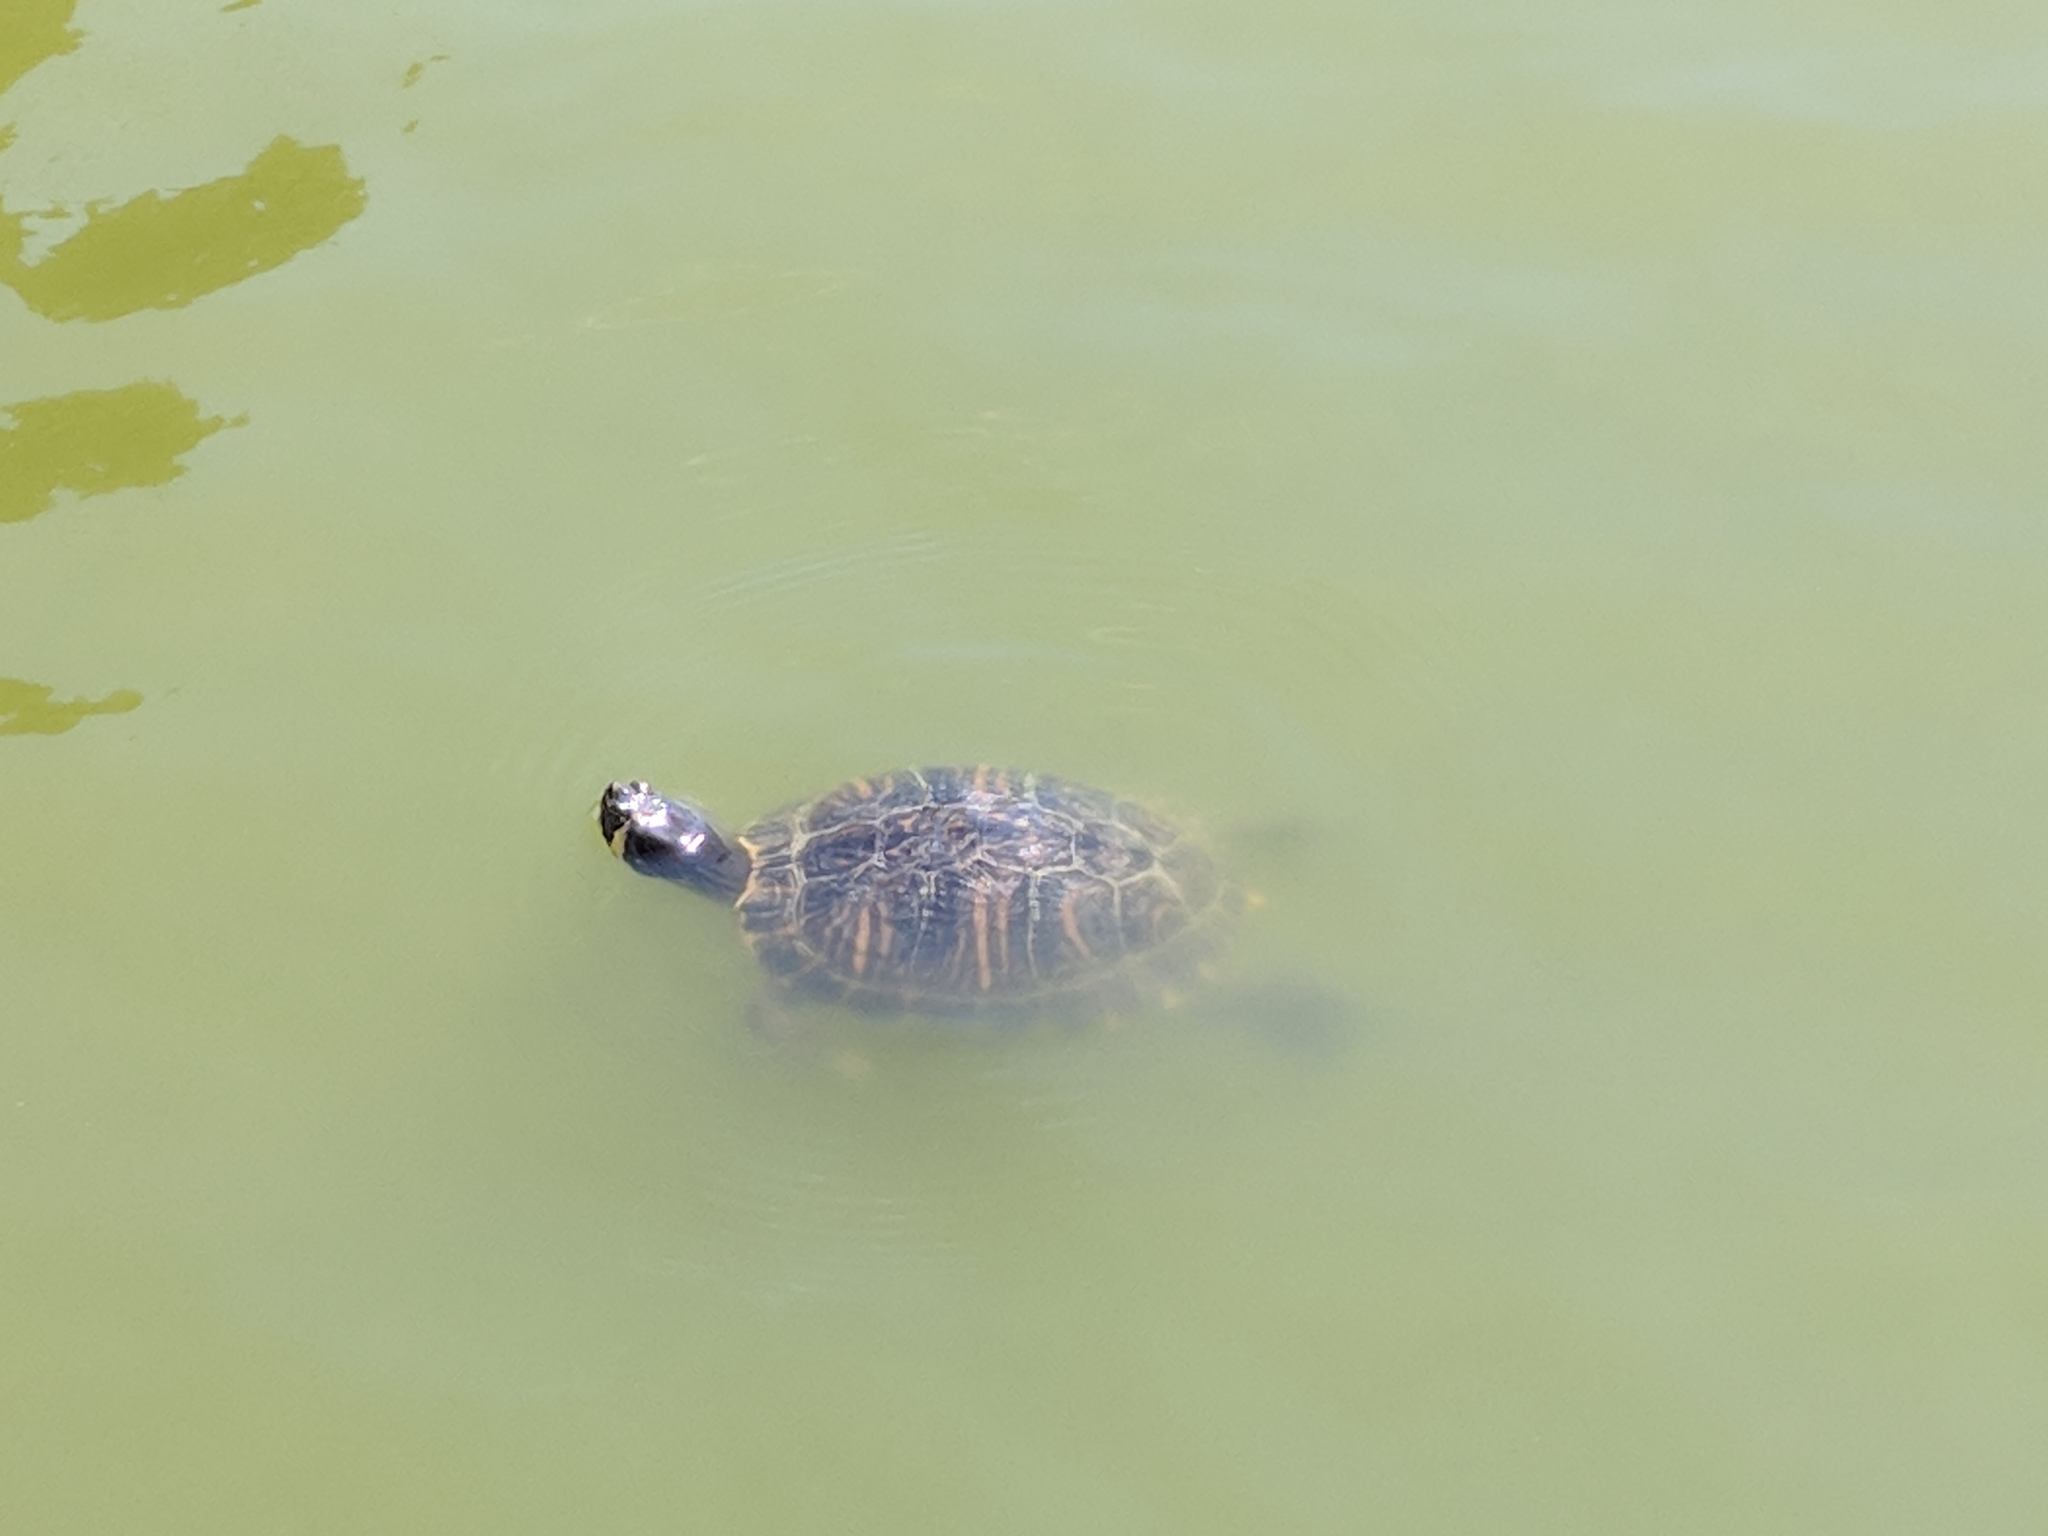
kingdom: Animalia
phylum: Chordata
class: Testudines
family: Emydidae
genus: Trachemys
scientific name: Trachemys scripta
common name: Slider
